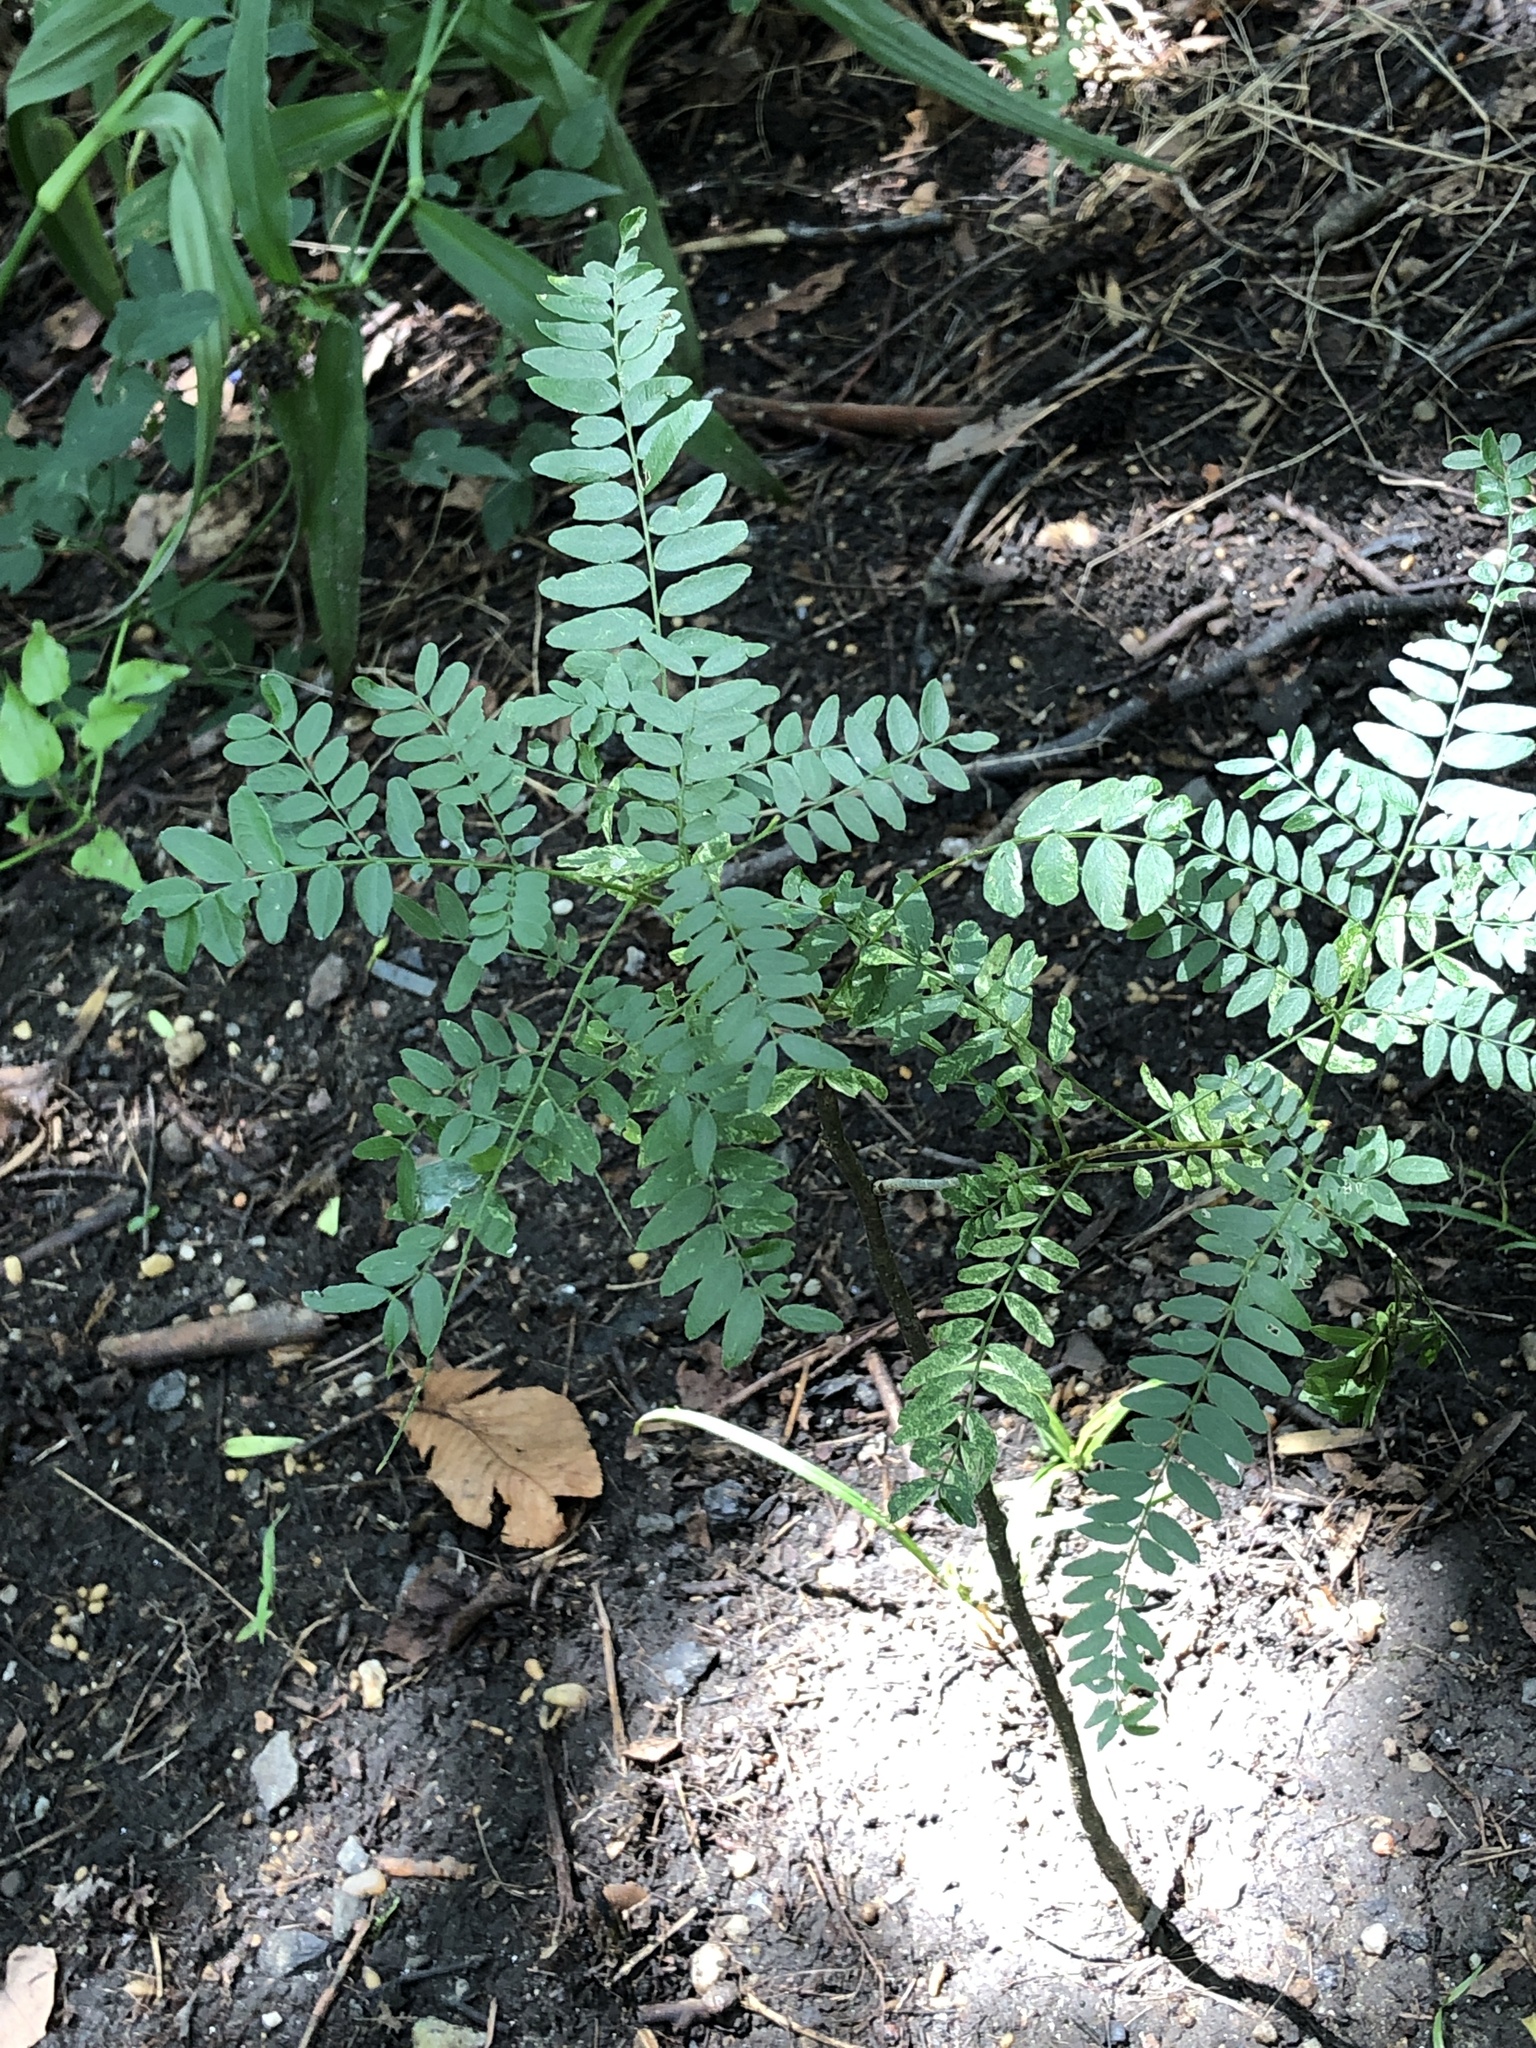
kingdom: Plantae
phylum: Tracheophyta
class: Magnoliopsida
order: Fabales
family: Fabaceae
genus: Gleditsia
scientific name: Gleditsia triacanthos
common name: Common honeylocust
